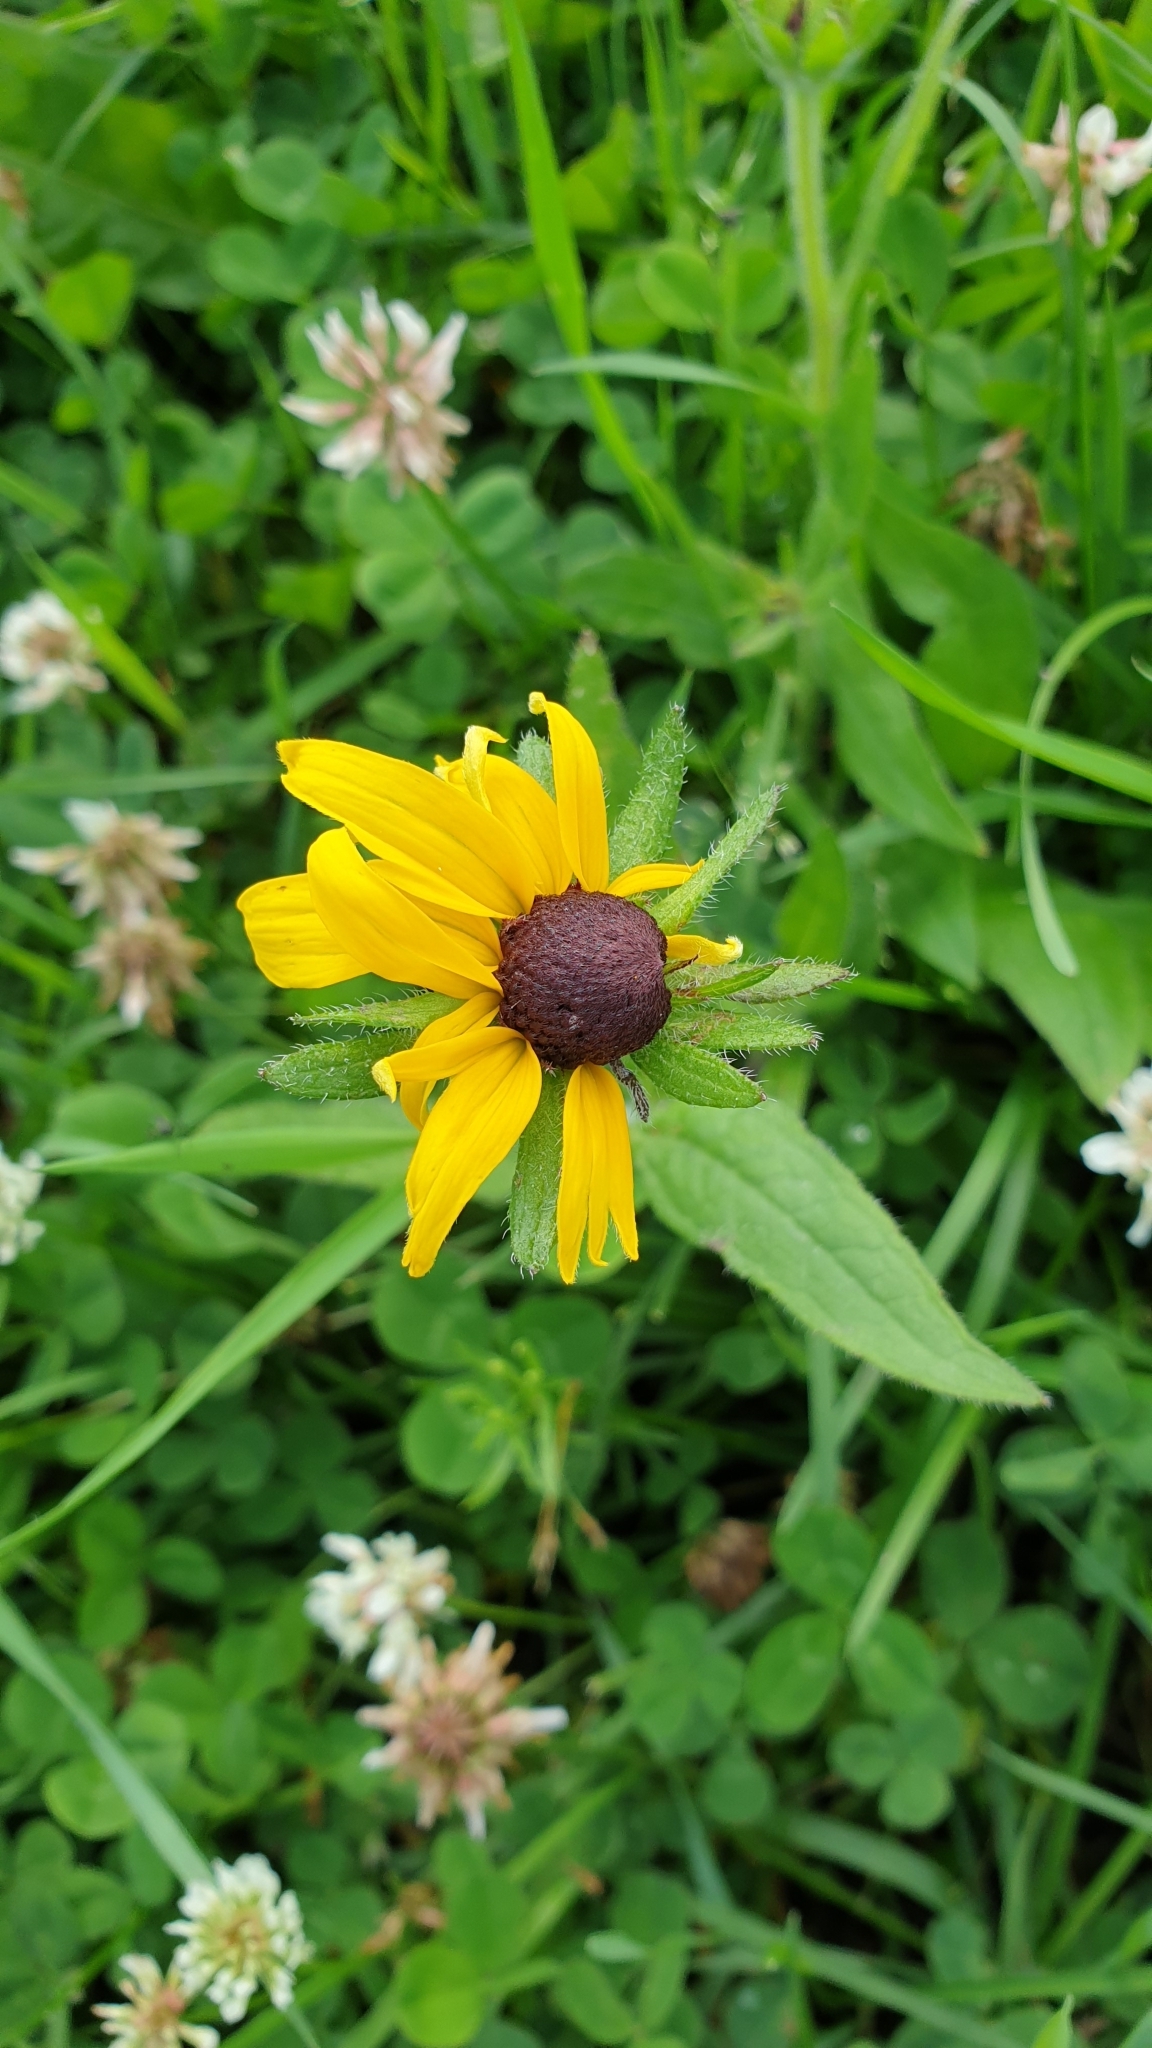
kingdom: Plantae
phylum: Tracheophyta
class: Magnoliopsida
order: Asterales
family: Asteraceae
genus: Rudbeckia
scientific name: Rudbeckia hirta
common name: Black-eyed-susan
